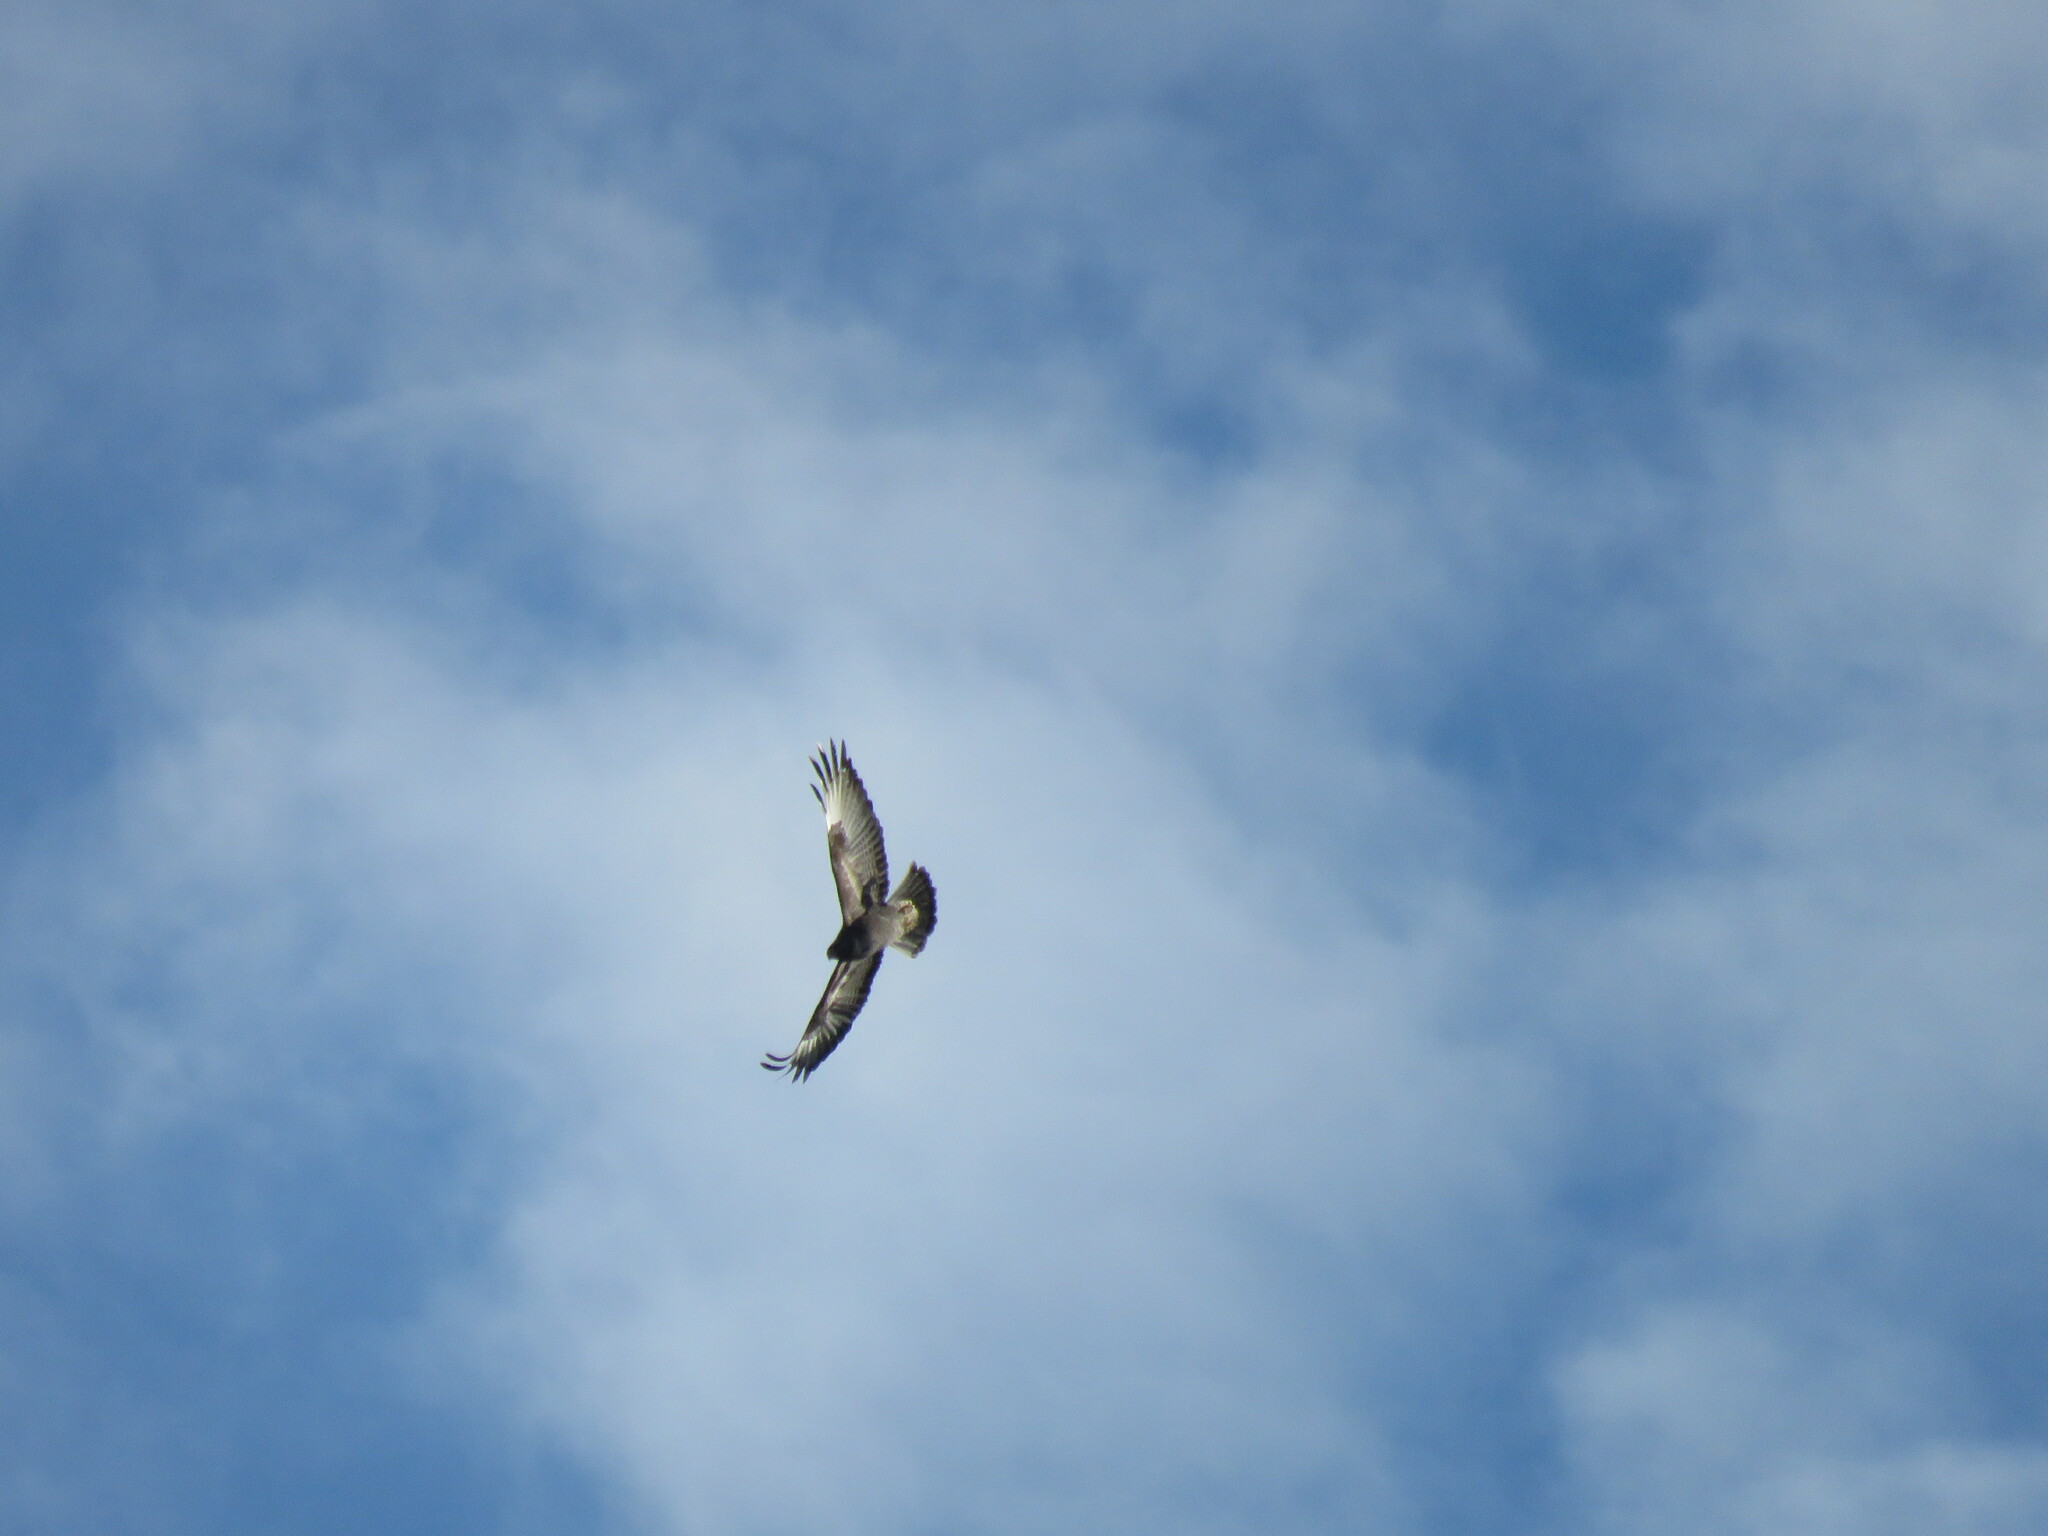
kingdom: Animalia
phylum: Chordata
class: Aves
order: Accipitriformes
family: Accipitridae
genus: Buteo
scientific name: Buteo buteo
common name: Common buzzard
